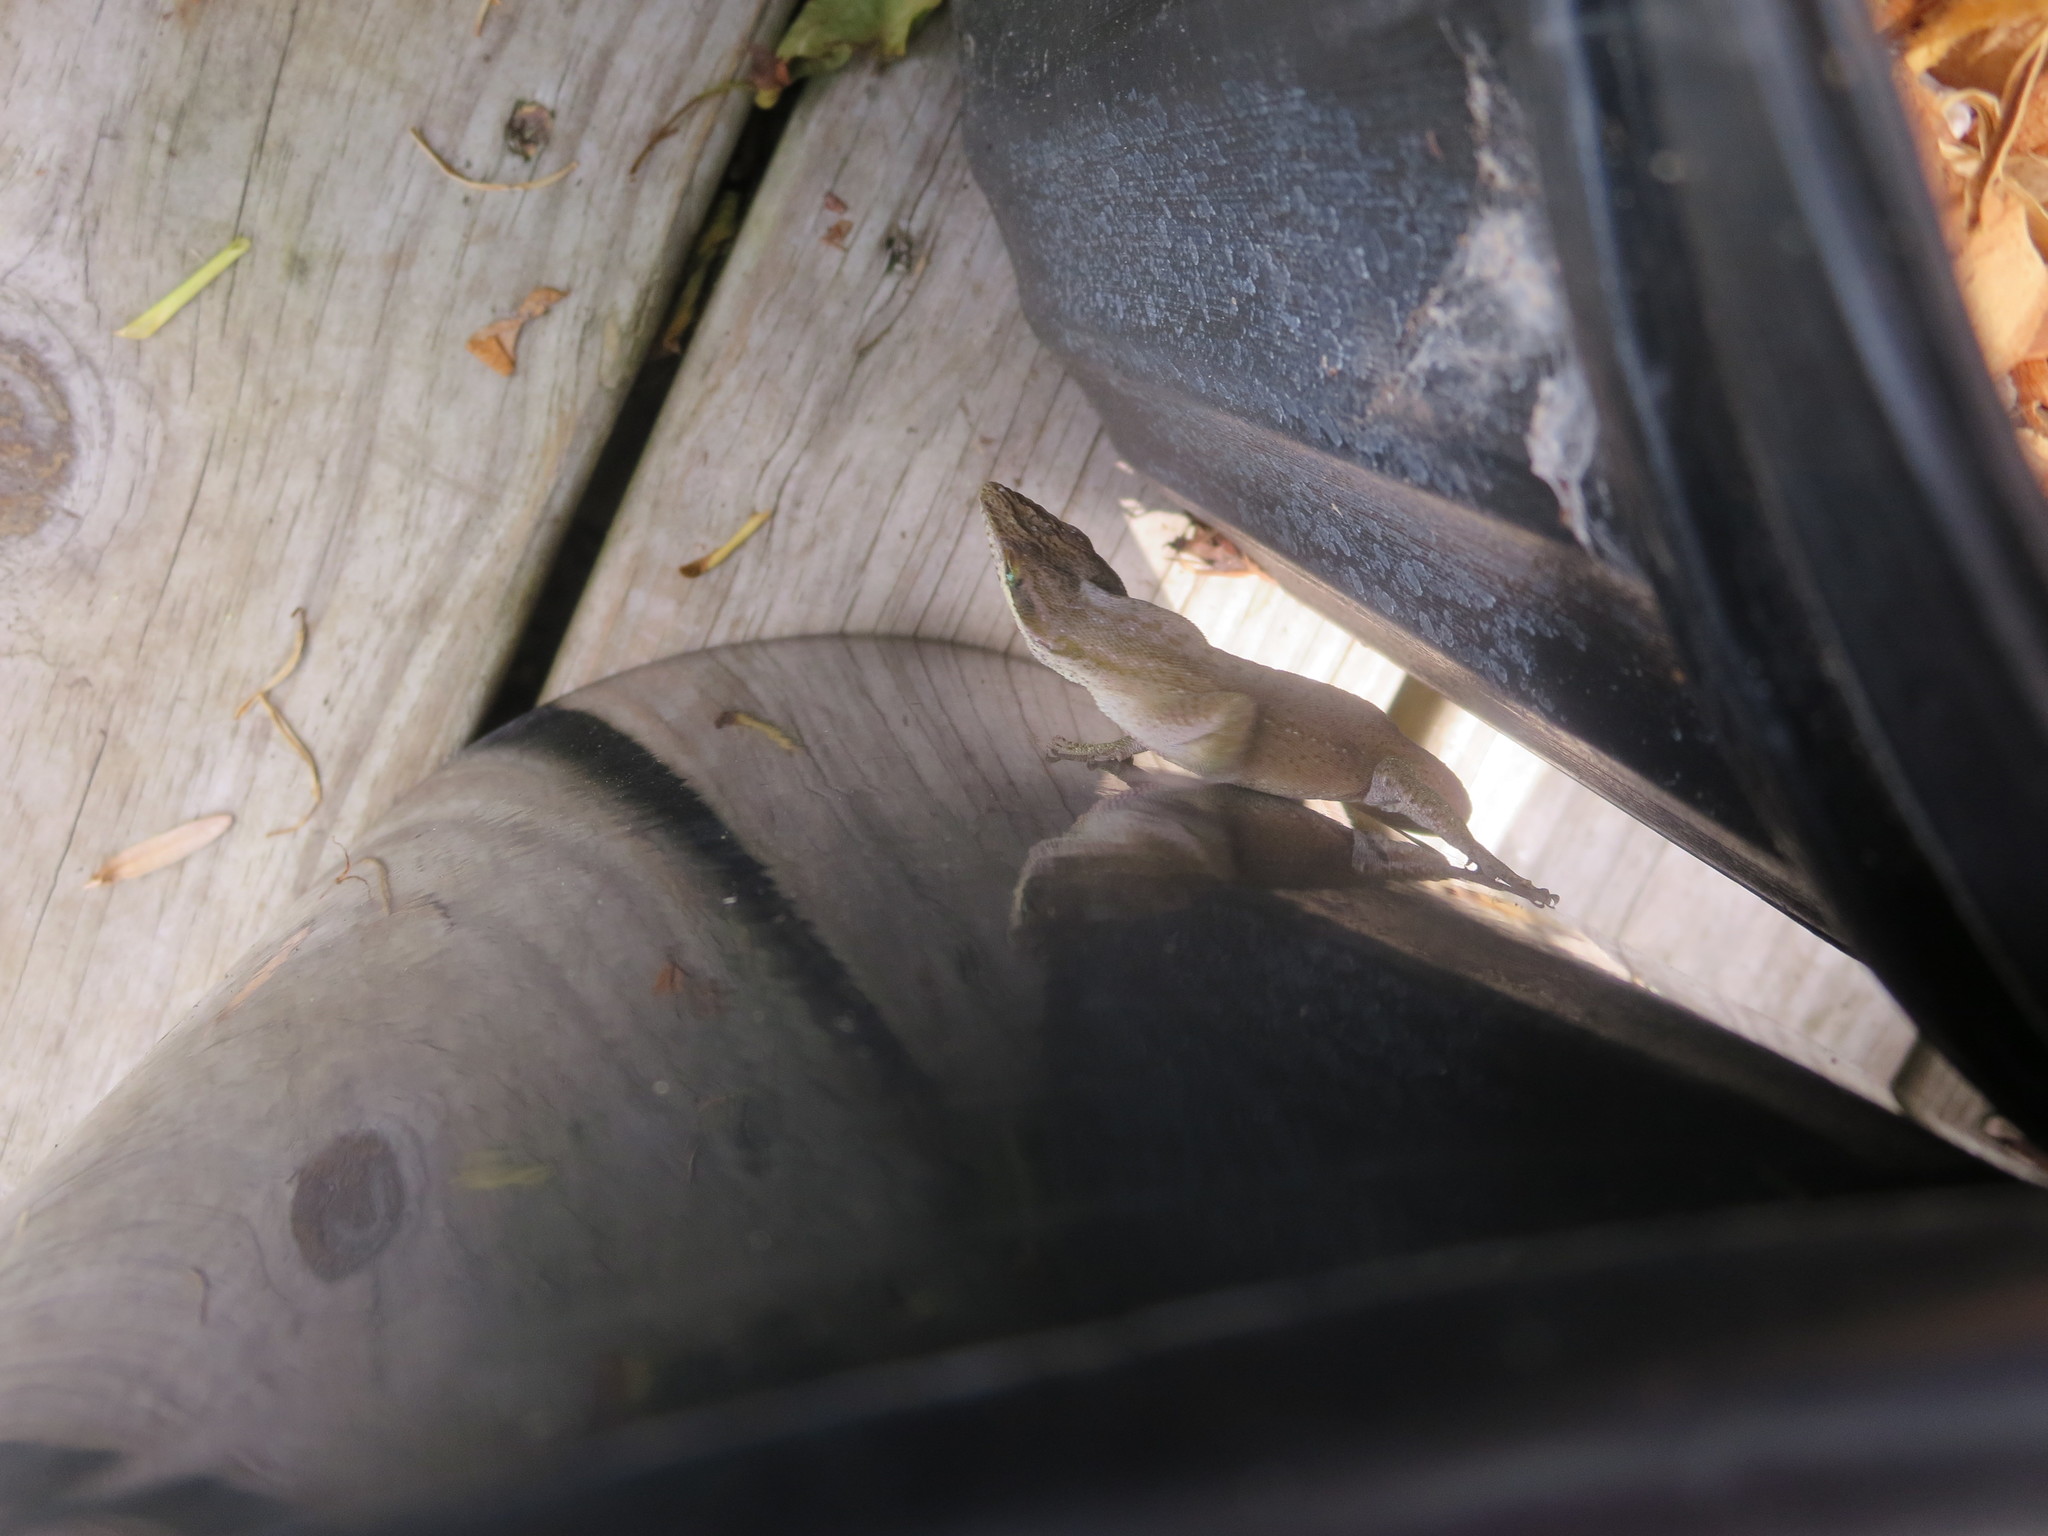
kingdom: Animalia
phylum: Chordata
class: Squamata
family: Dactyloidae
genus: Anolis
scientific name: Anolis carolinensis
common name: Green anole
